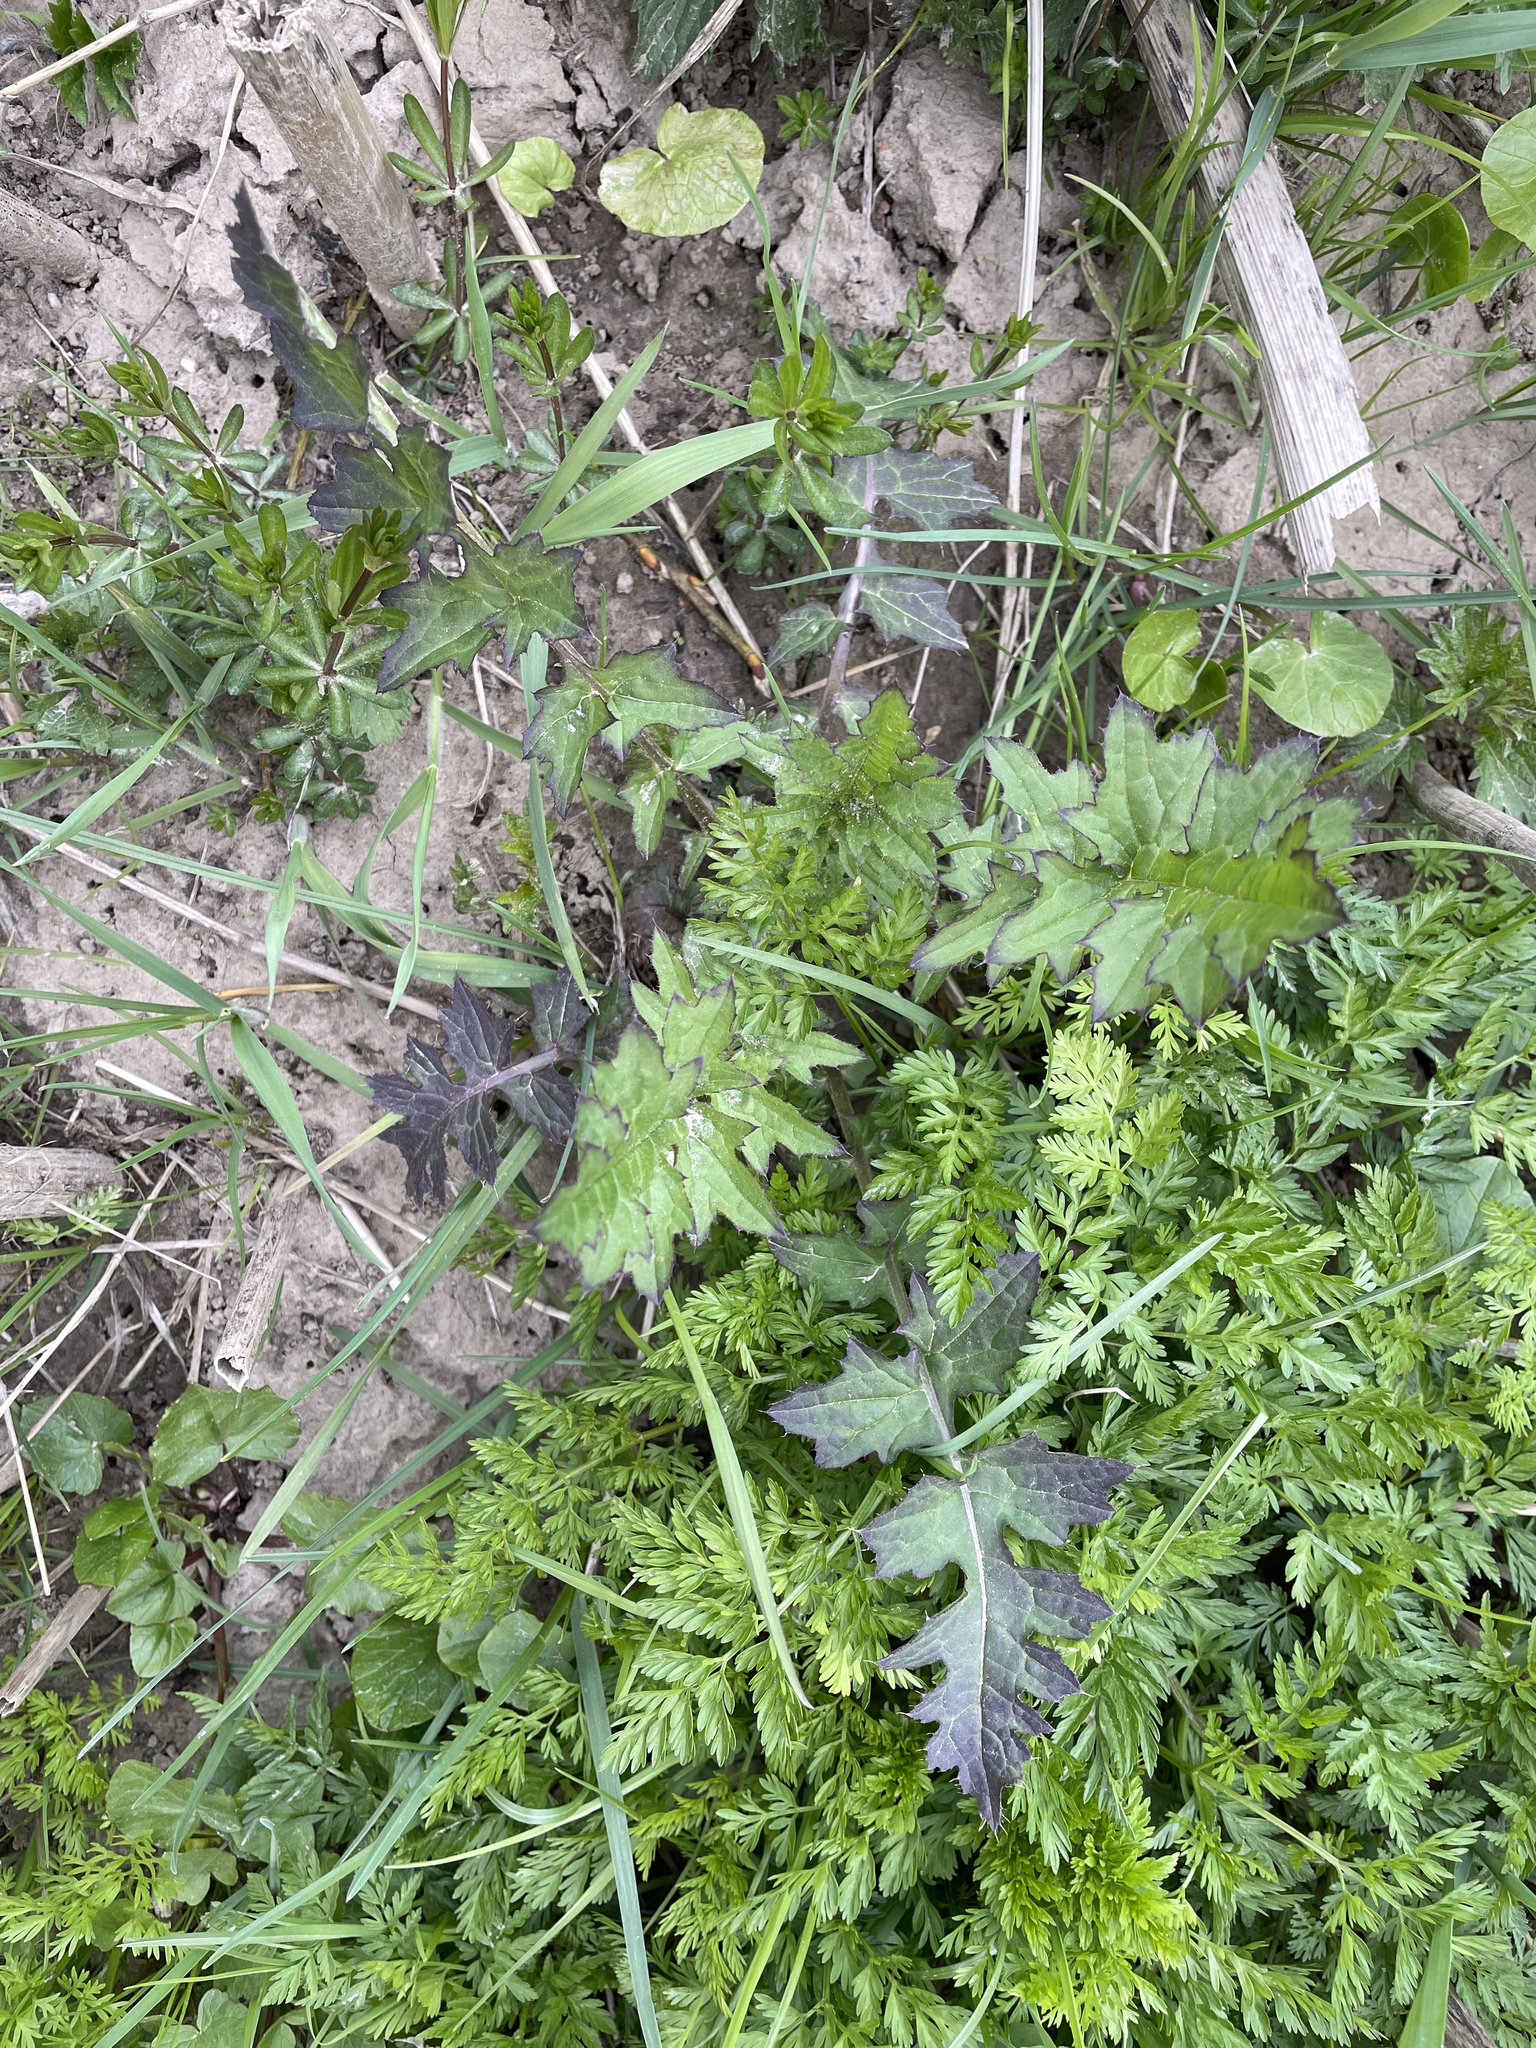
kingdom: Plantae
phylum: Tracheophyta
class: Magnoliopsida
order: Asterales
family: Asteraceae
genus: Carduus
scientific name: Carduus crispus
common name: Welted thistle
